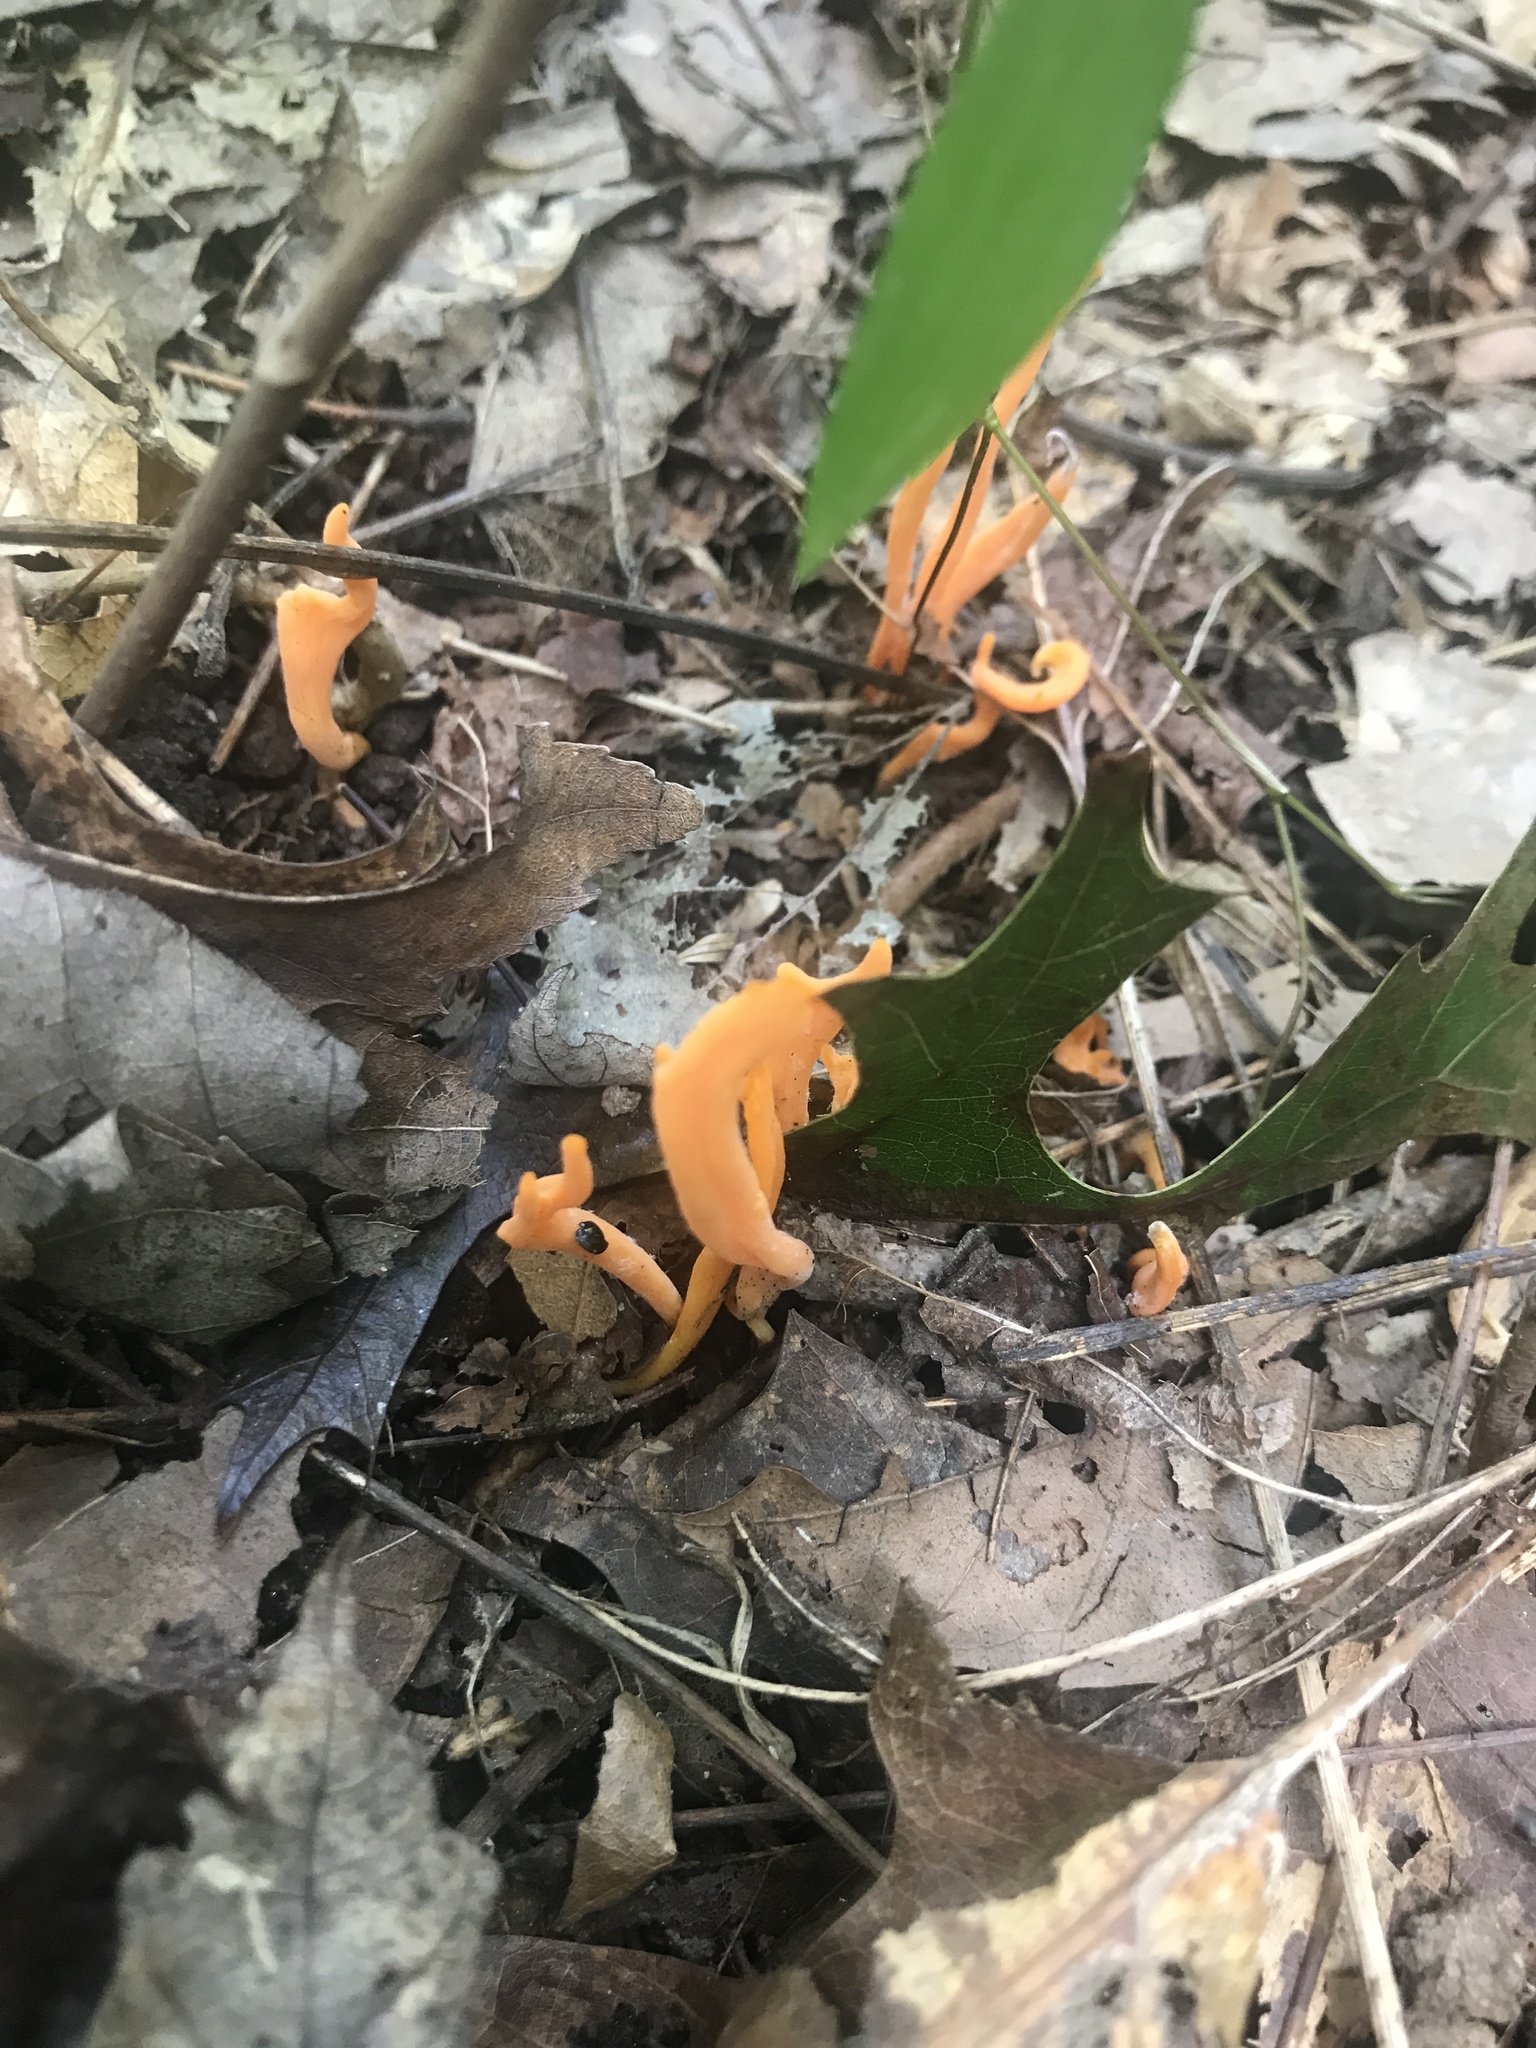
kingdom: Fungi
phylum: Basidiomycota
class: Agaricomycetes
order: Agaricales
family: Clavariaceae
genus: Clavulinopsis
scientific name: Clavulinopsis aurantiocinnabarina
